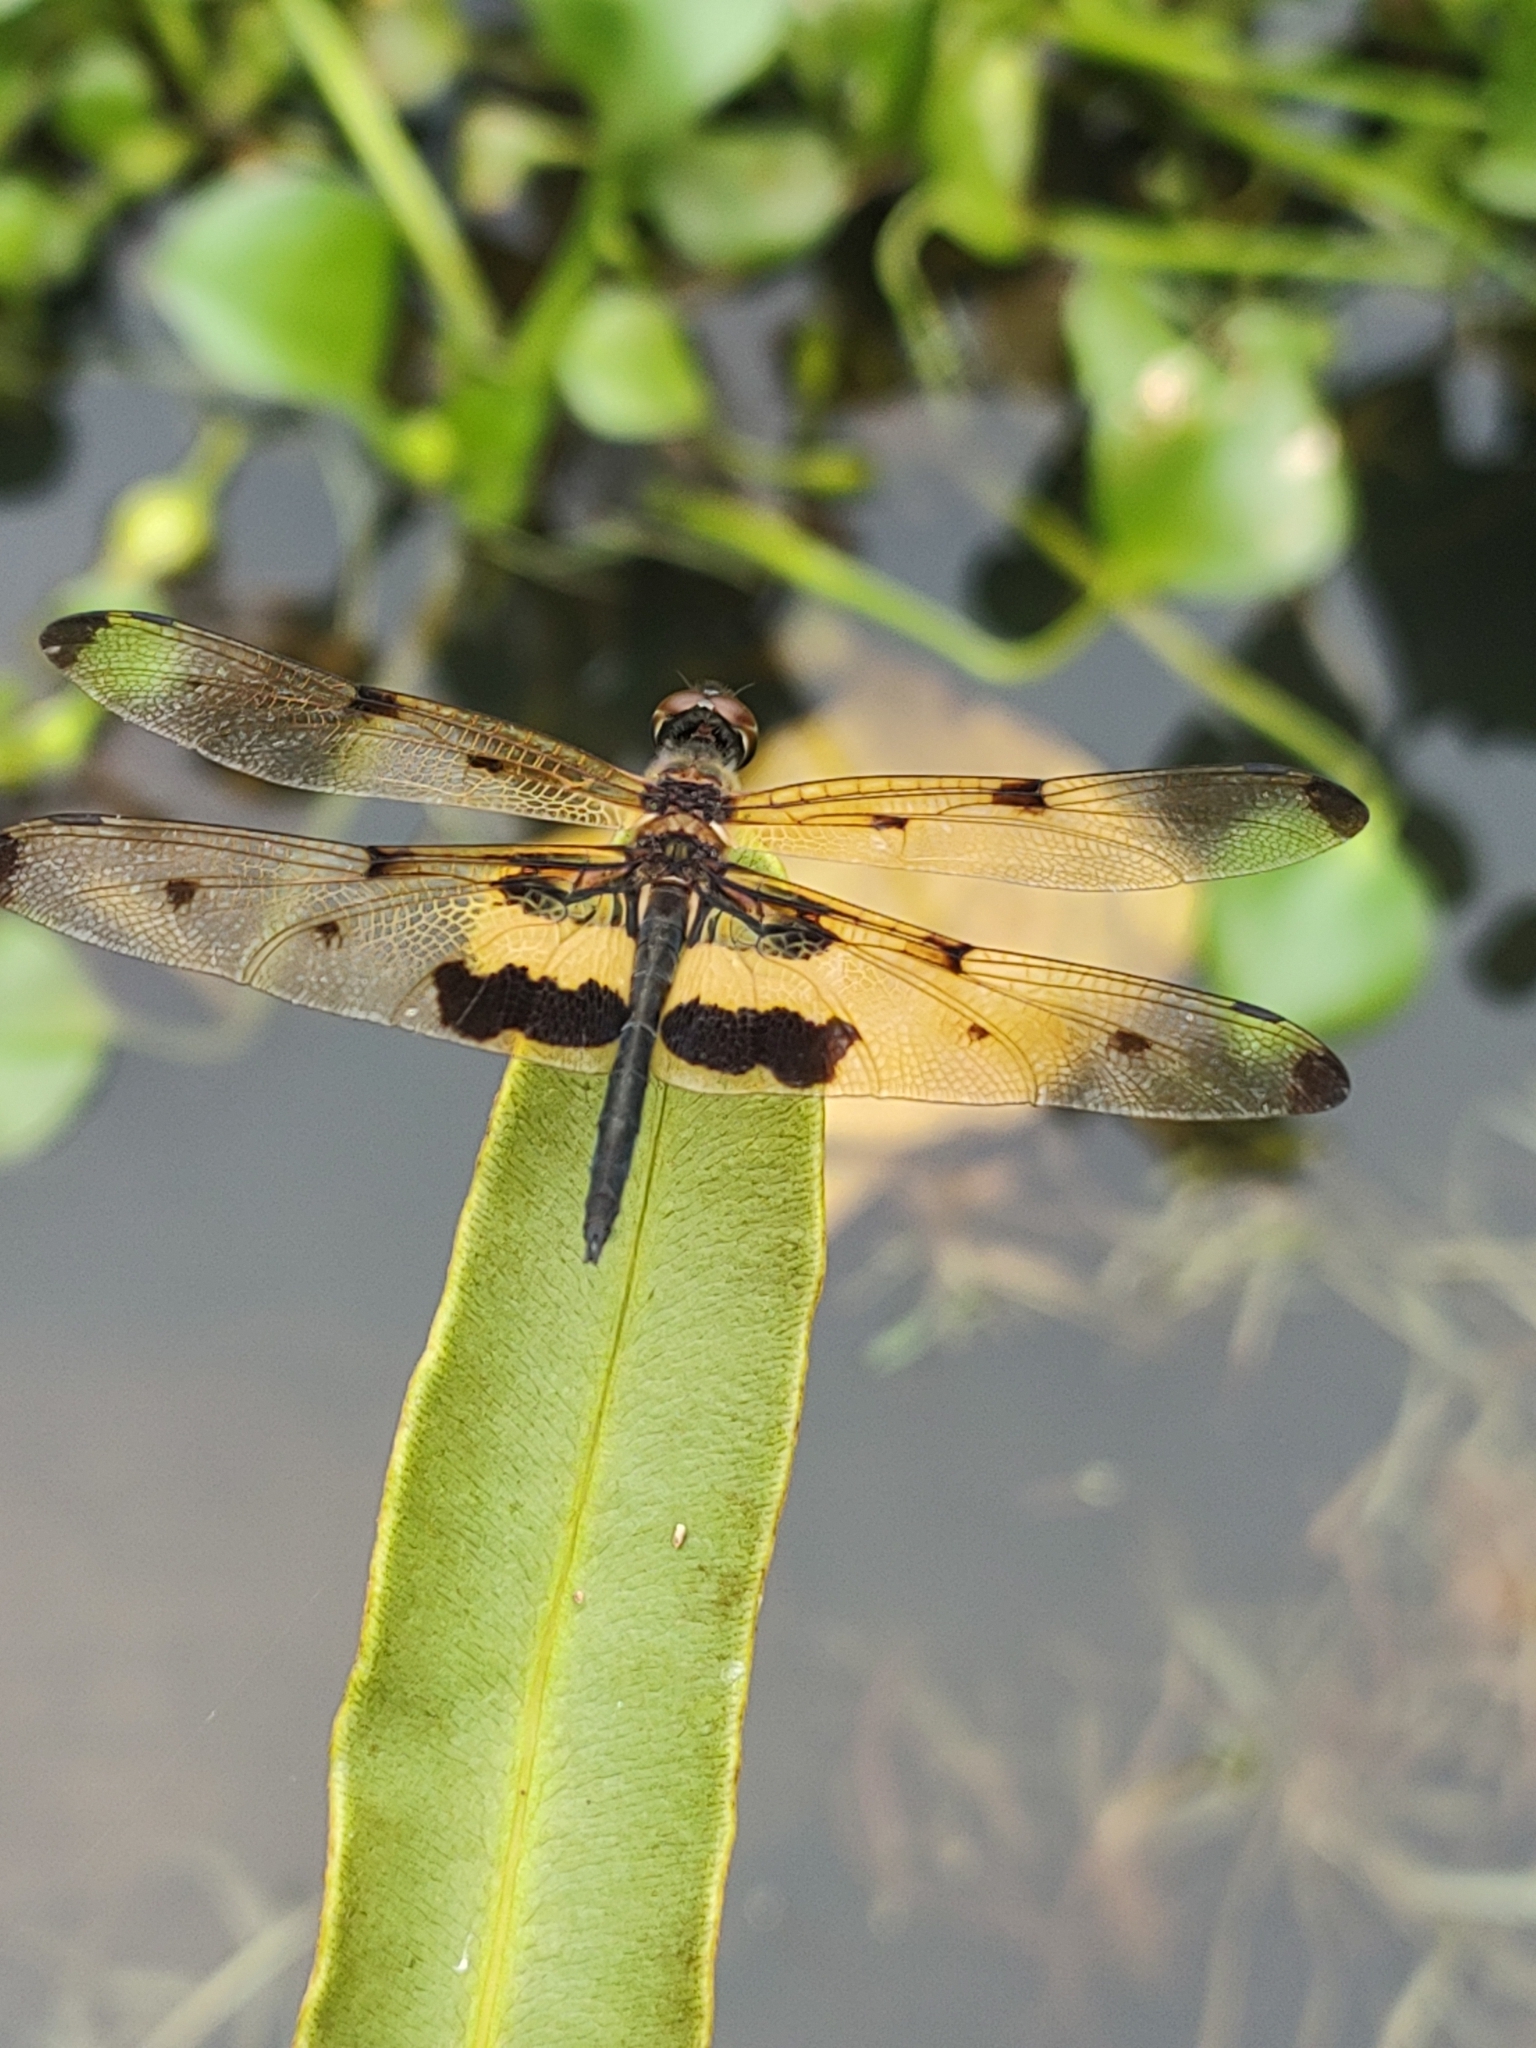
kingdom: Animalia
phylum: Arthropoda
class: Insecta
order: Odonata
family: Libellulidae
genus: Rhyothemis
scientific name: Rhyothemis variegata
